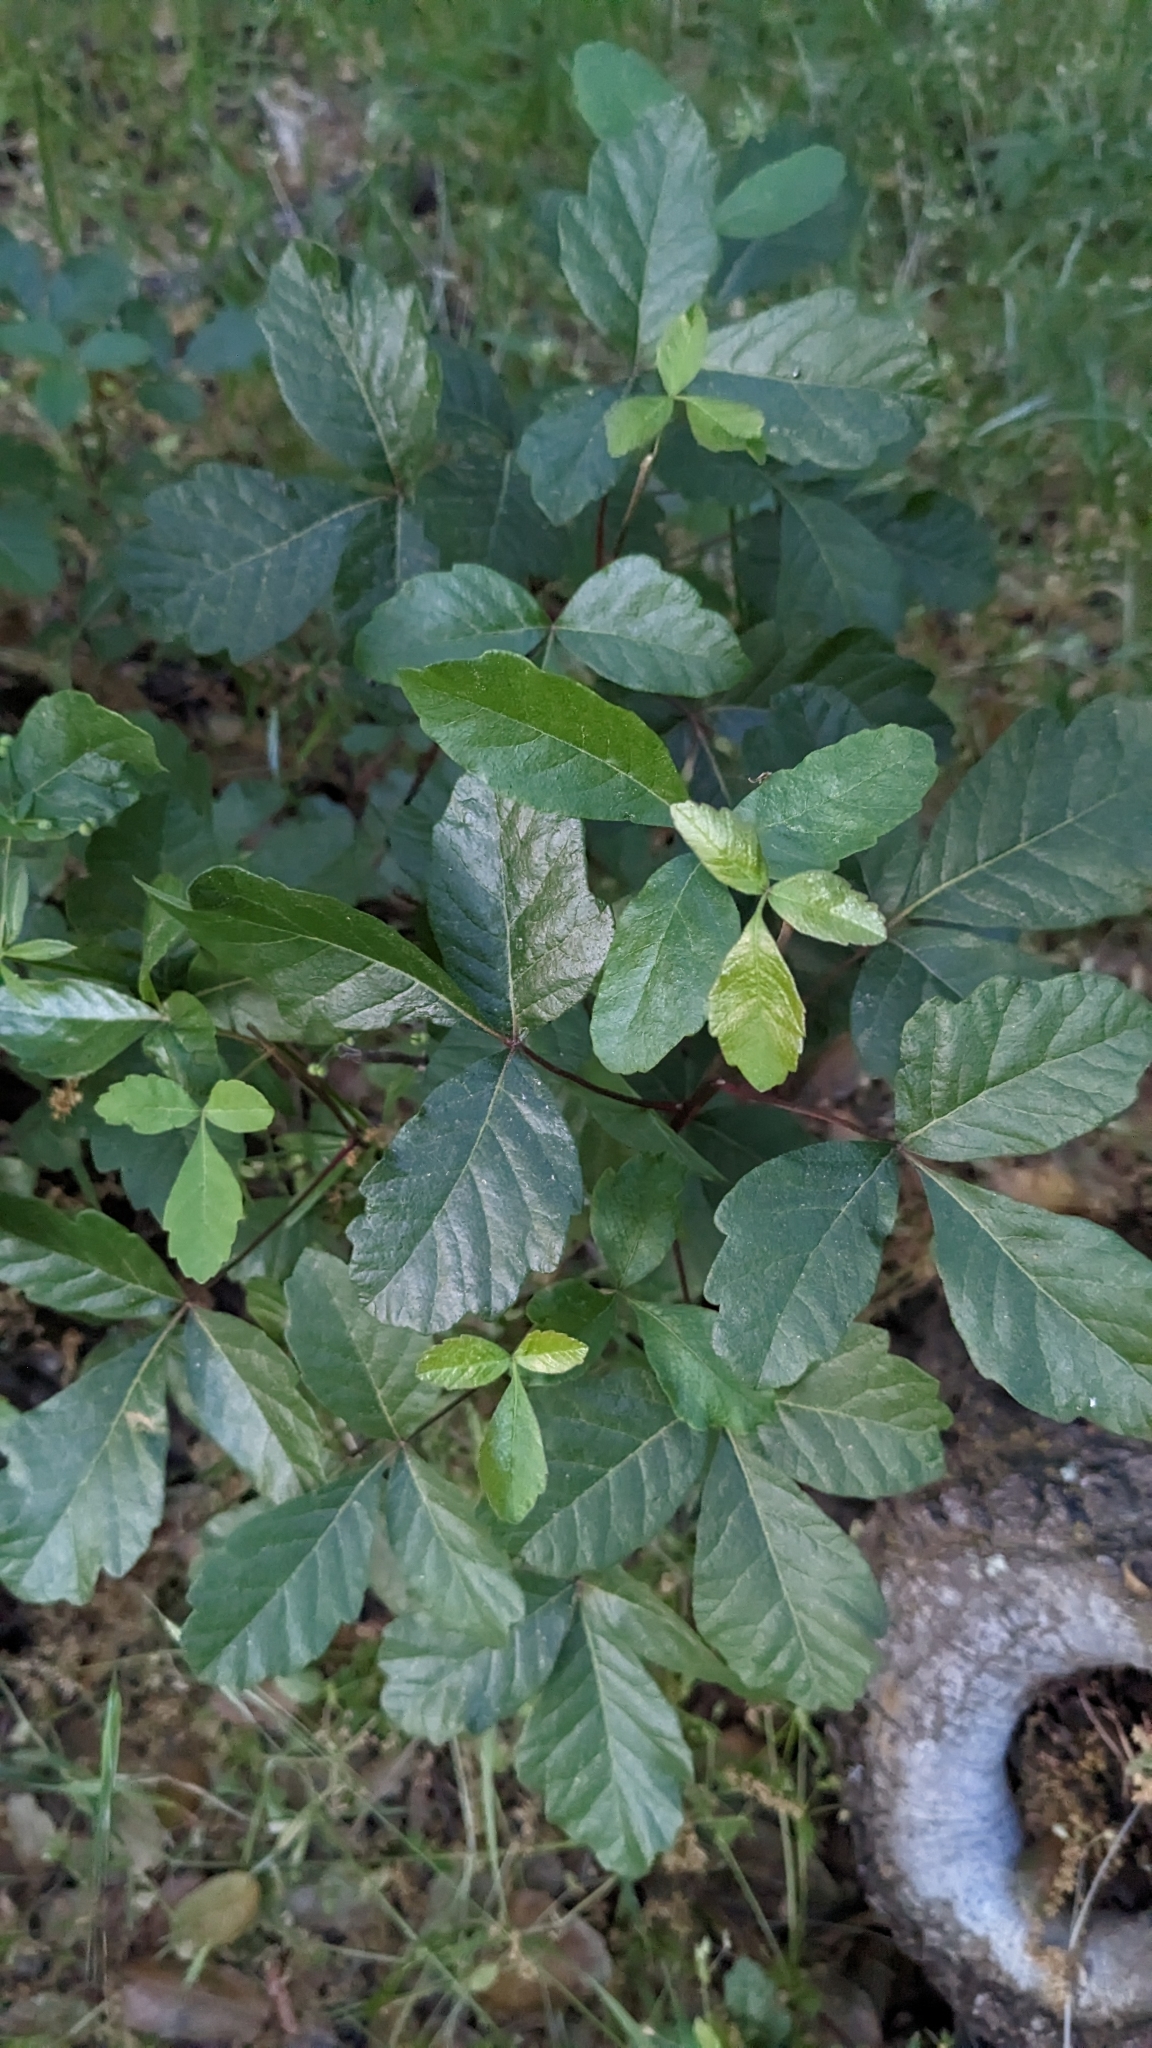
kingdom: Plantae
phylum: Tracheophyta
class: Magnoliopsida
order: Sapindales
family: Anacardiaceae
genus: Toxicodendron
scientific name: Toxicodendron diversilobum
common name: Pacific poison-oak
